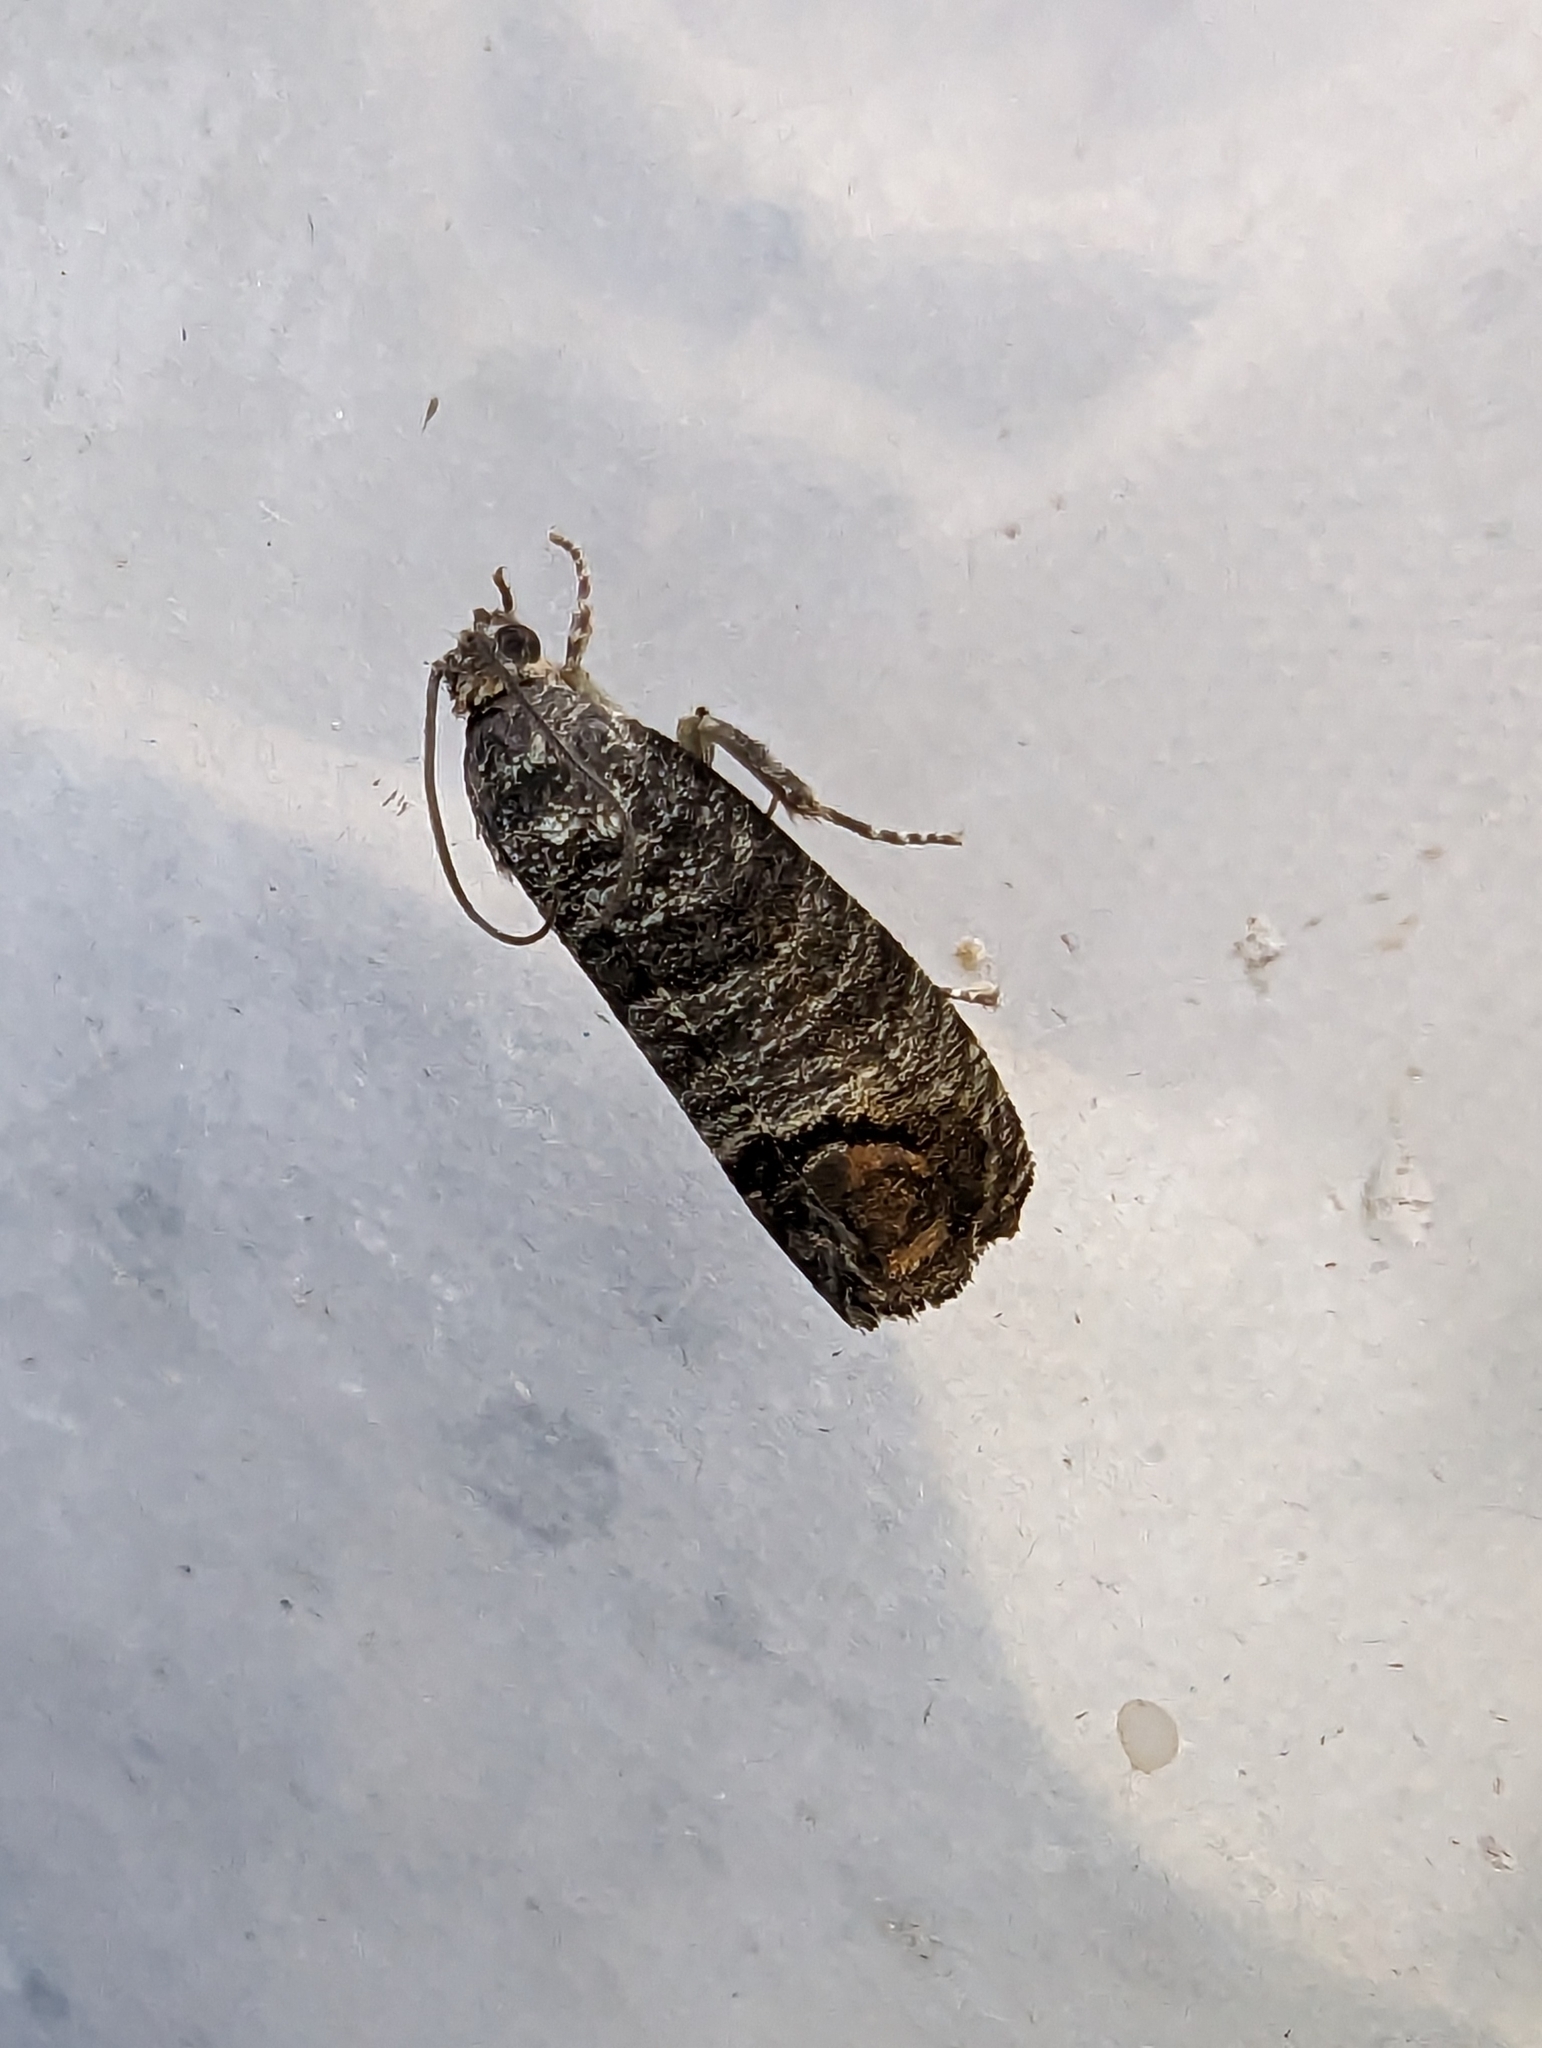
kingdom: Animalia
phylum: Arthropoda
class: Insecta
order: Lepidoptera
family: Tortricidae
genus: Cydia
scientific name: Cydia pomonella
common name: Codling moth
